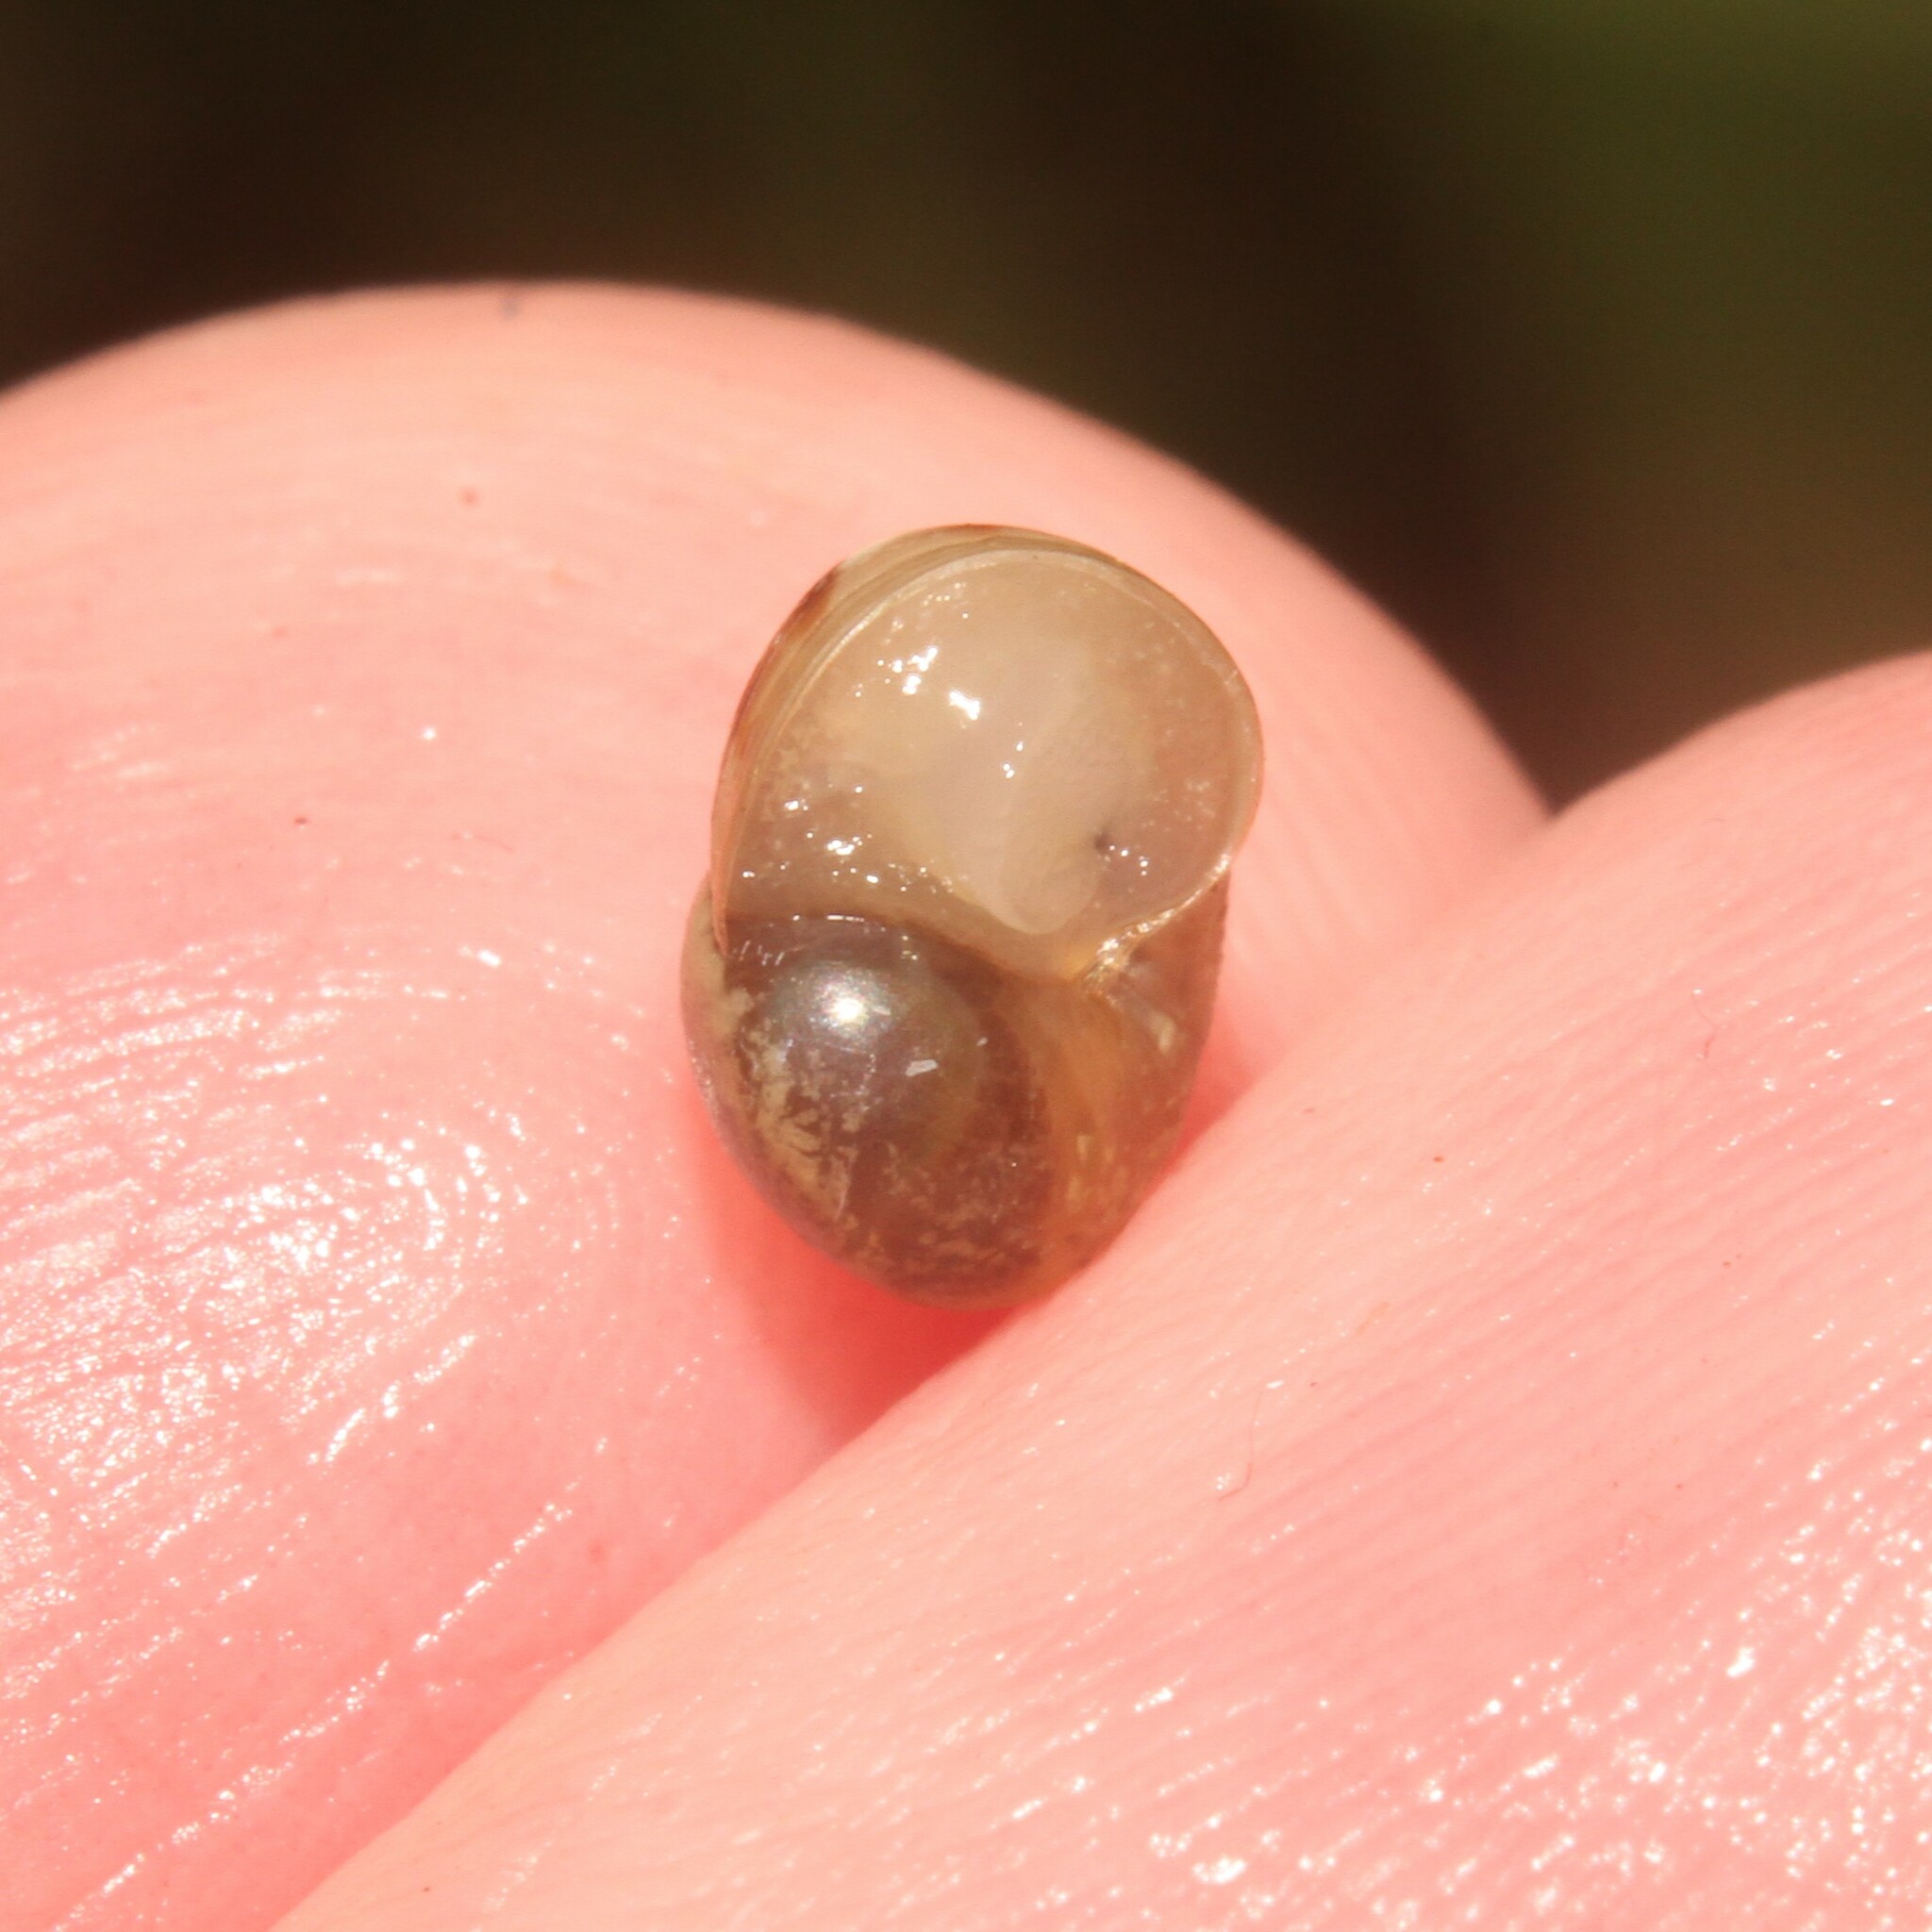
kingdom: Animalia
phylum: Mollusca
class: Gastropoda
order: Stylommatophora
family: Helicidae
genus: Cornu
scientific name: Cornu aspersum
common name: Brown garden snail
